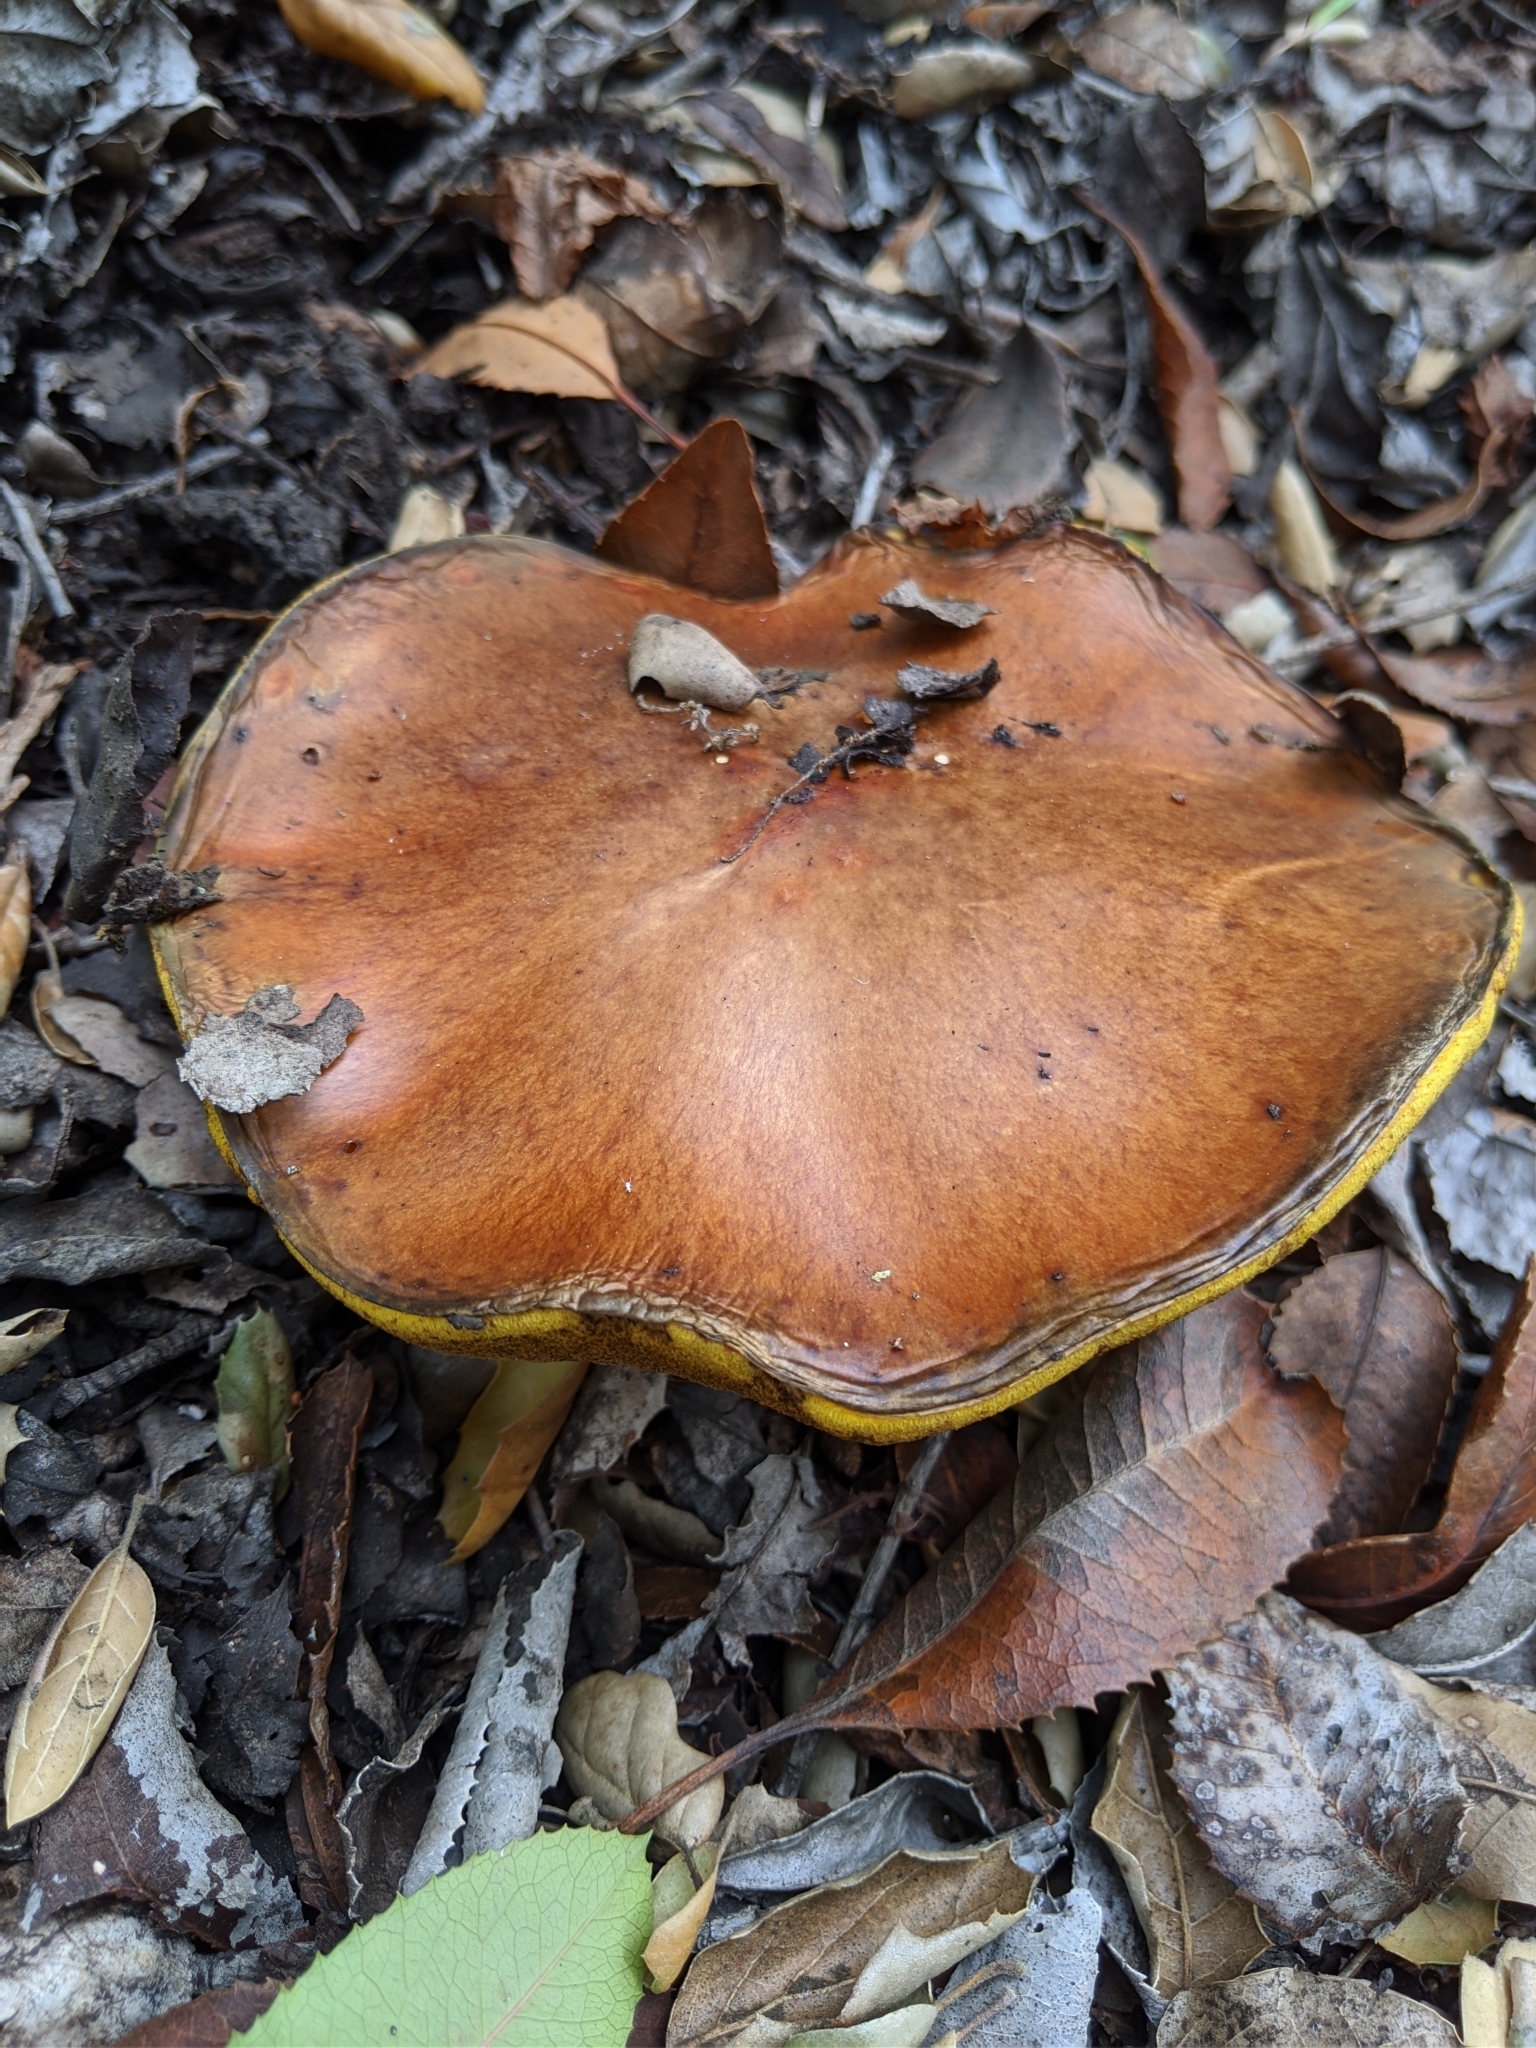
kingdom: Fungi
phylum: Basidiomycota
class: Agaricomycetes
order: Boletales
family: Suillaceae
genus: Suillus
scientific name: Suillus pungens
